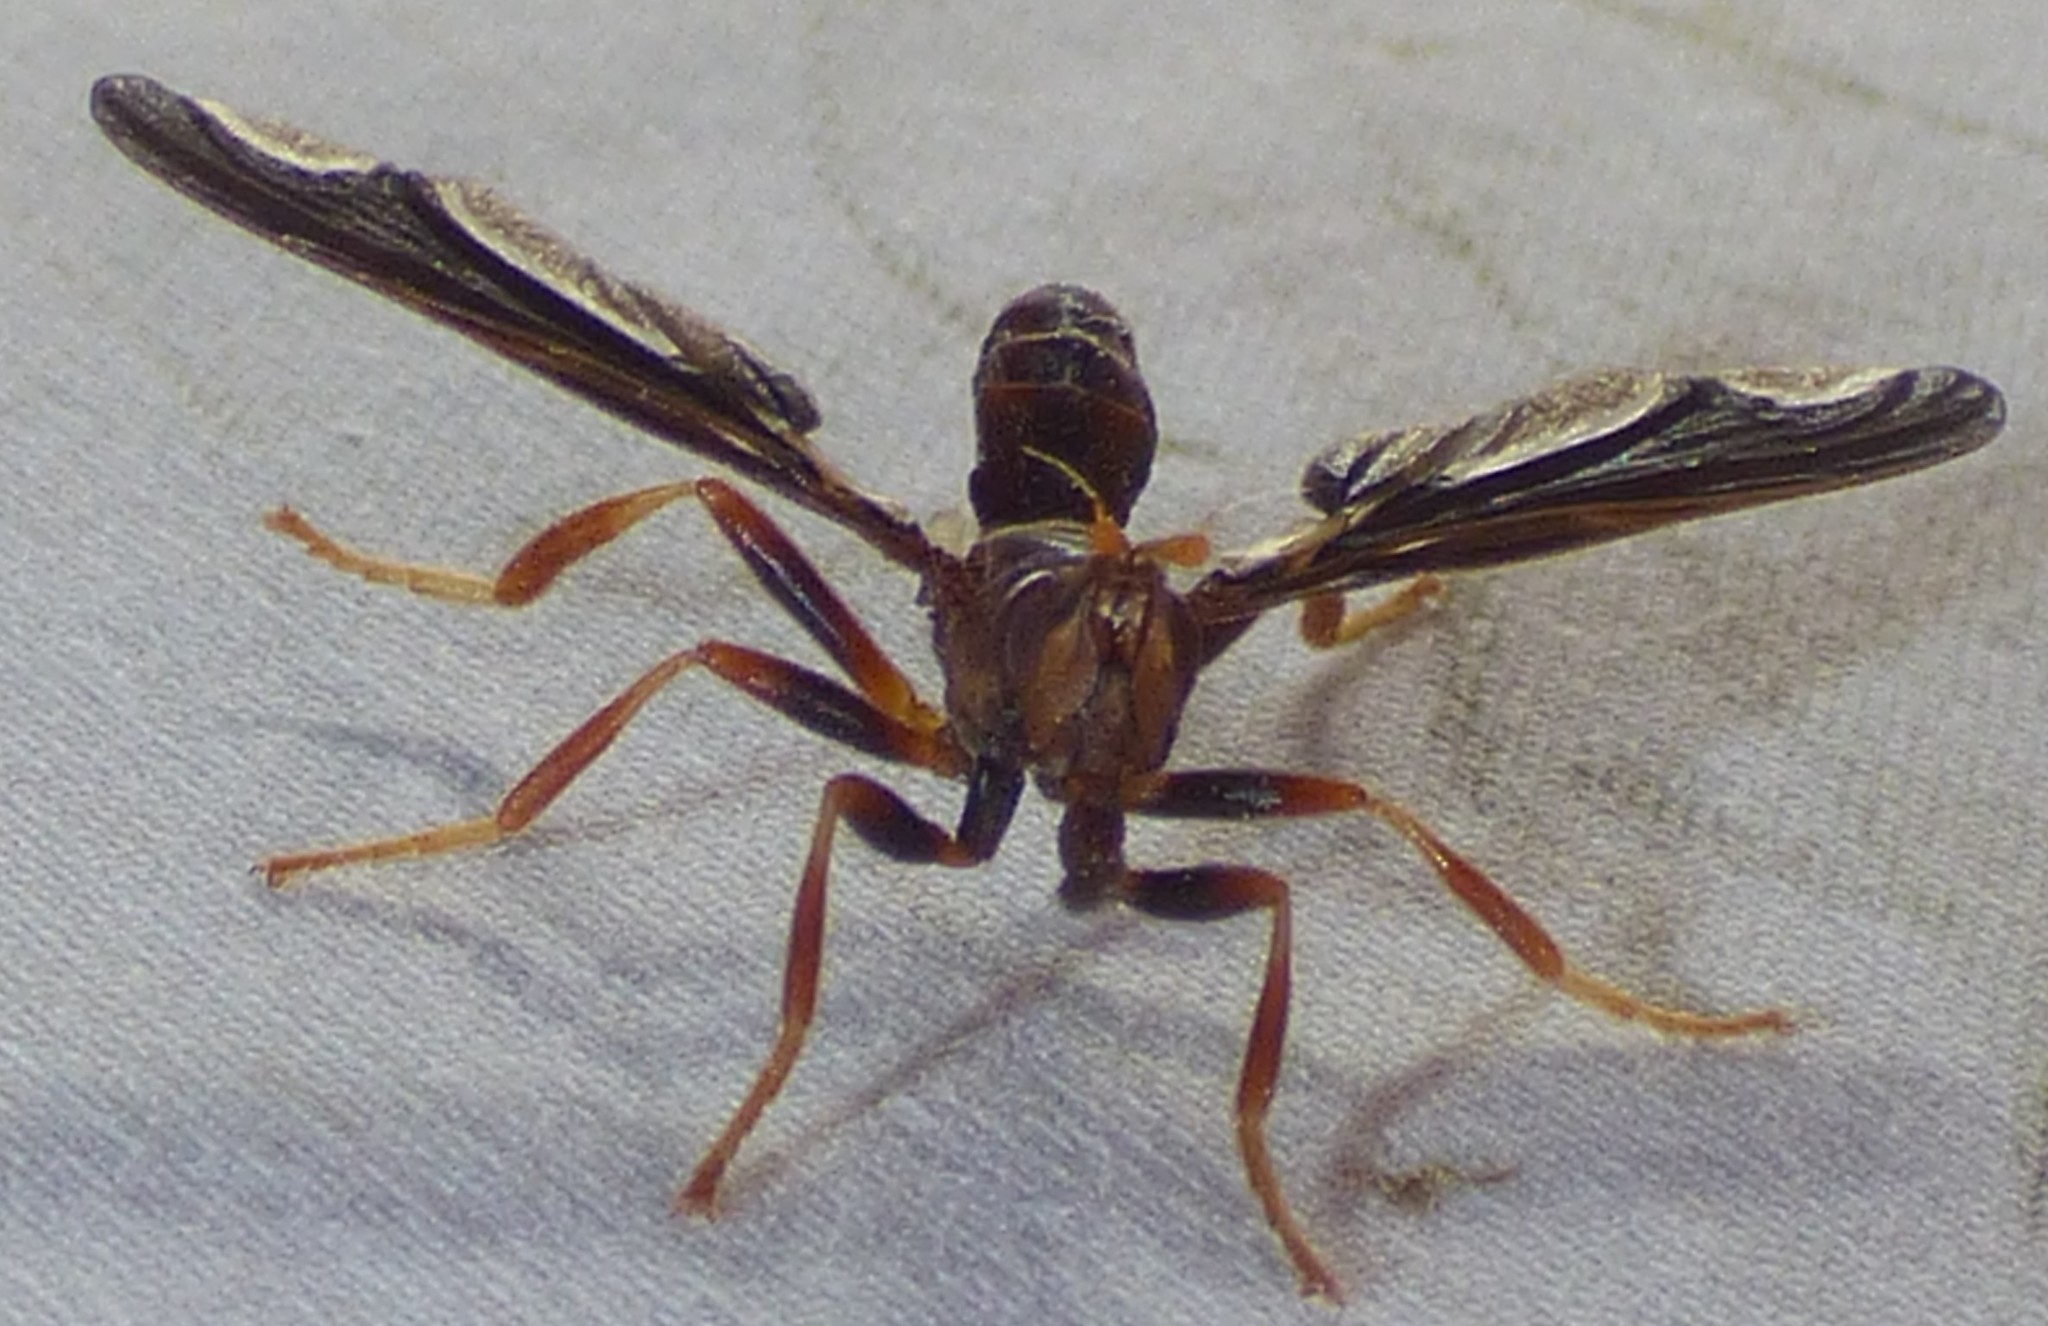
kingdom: Animalia
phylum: Arthropoda
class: Insecta
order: Diptera
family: Pyrgotidae
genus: Pyrgota
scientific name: Pyrgota undata
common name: Waved light fly
